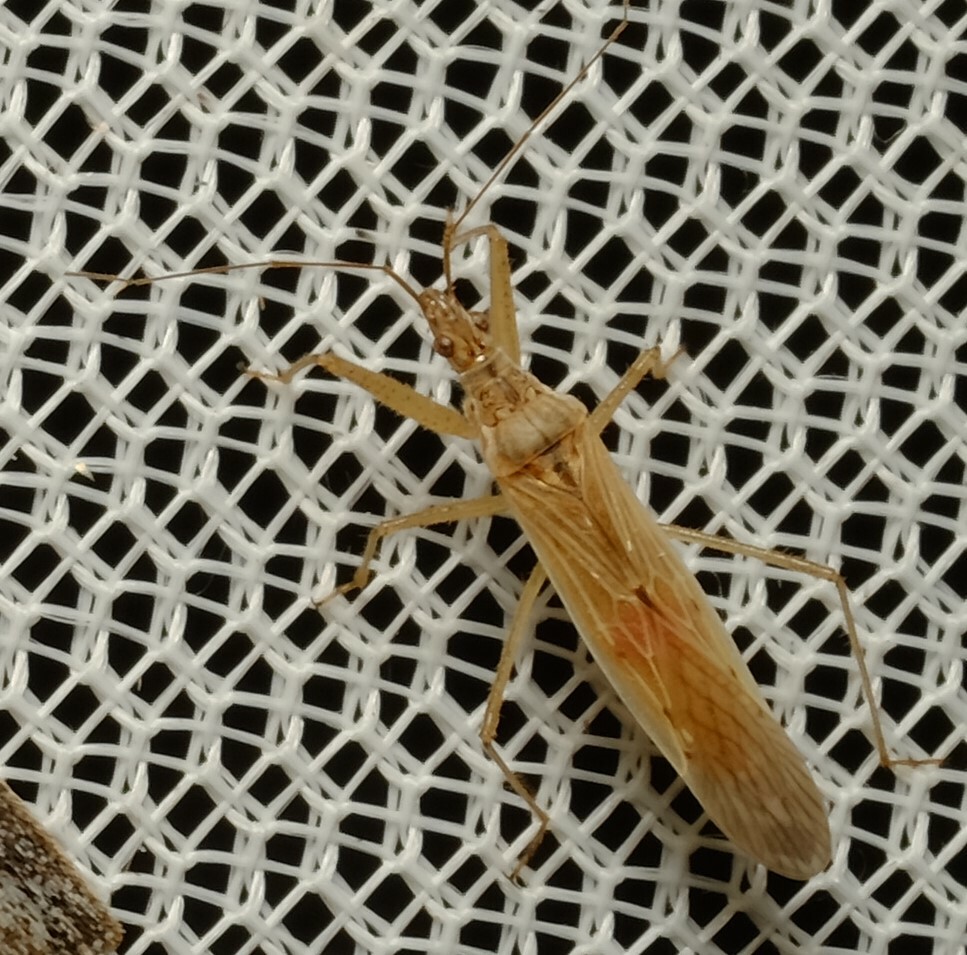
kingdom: Animalia
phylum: Arthropoda
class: Insecta
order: Hemiptera
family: Nabidae
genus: Nabis
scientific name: Nabis kinbergii
